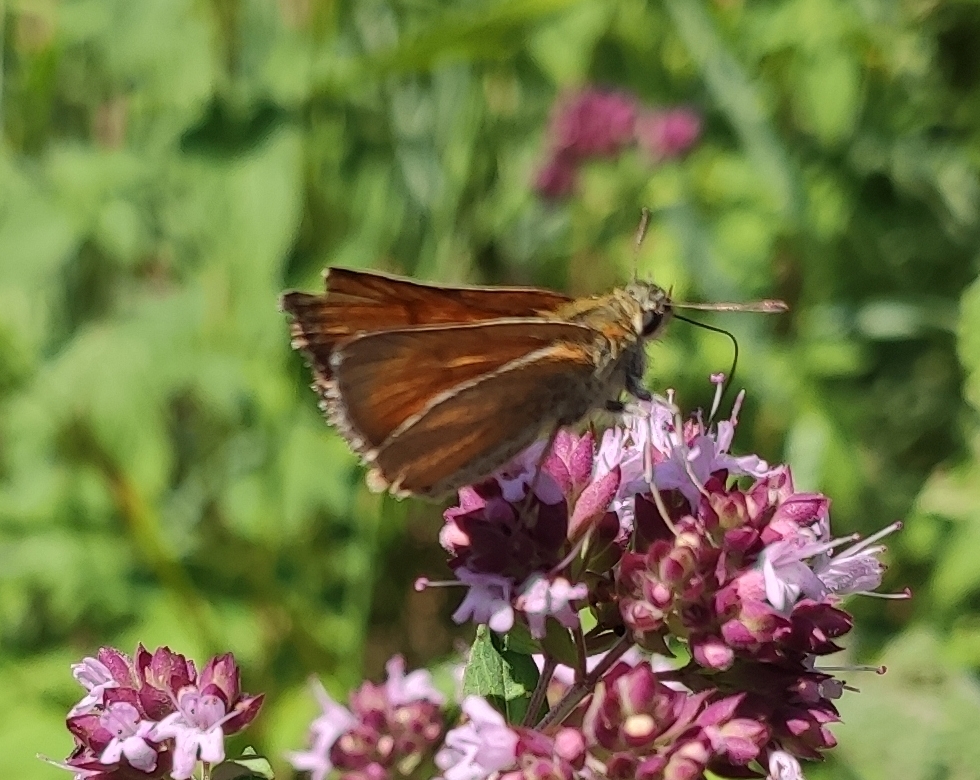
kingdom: Animalia
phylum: Arthropoda
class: Insecta
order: Lepidoptera
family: Hesperiidae
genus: Thymelicus
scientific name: Thymelicus sylvestris
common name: Small skipper
